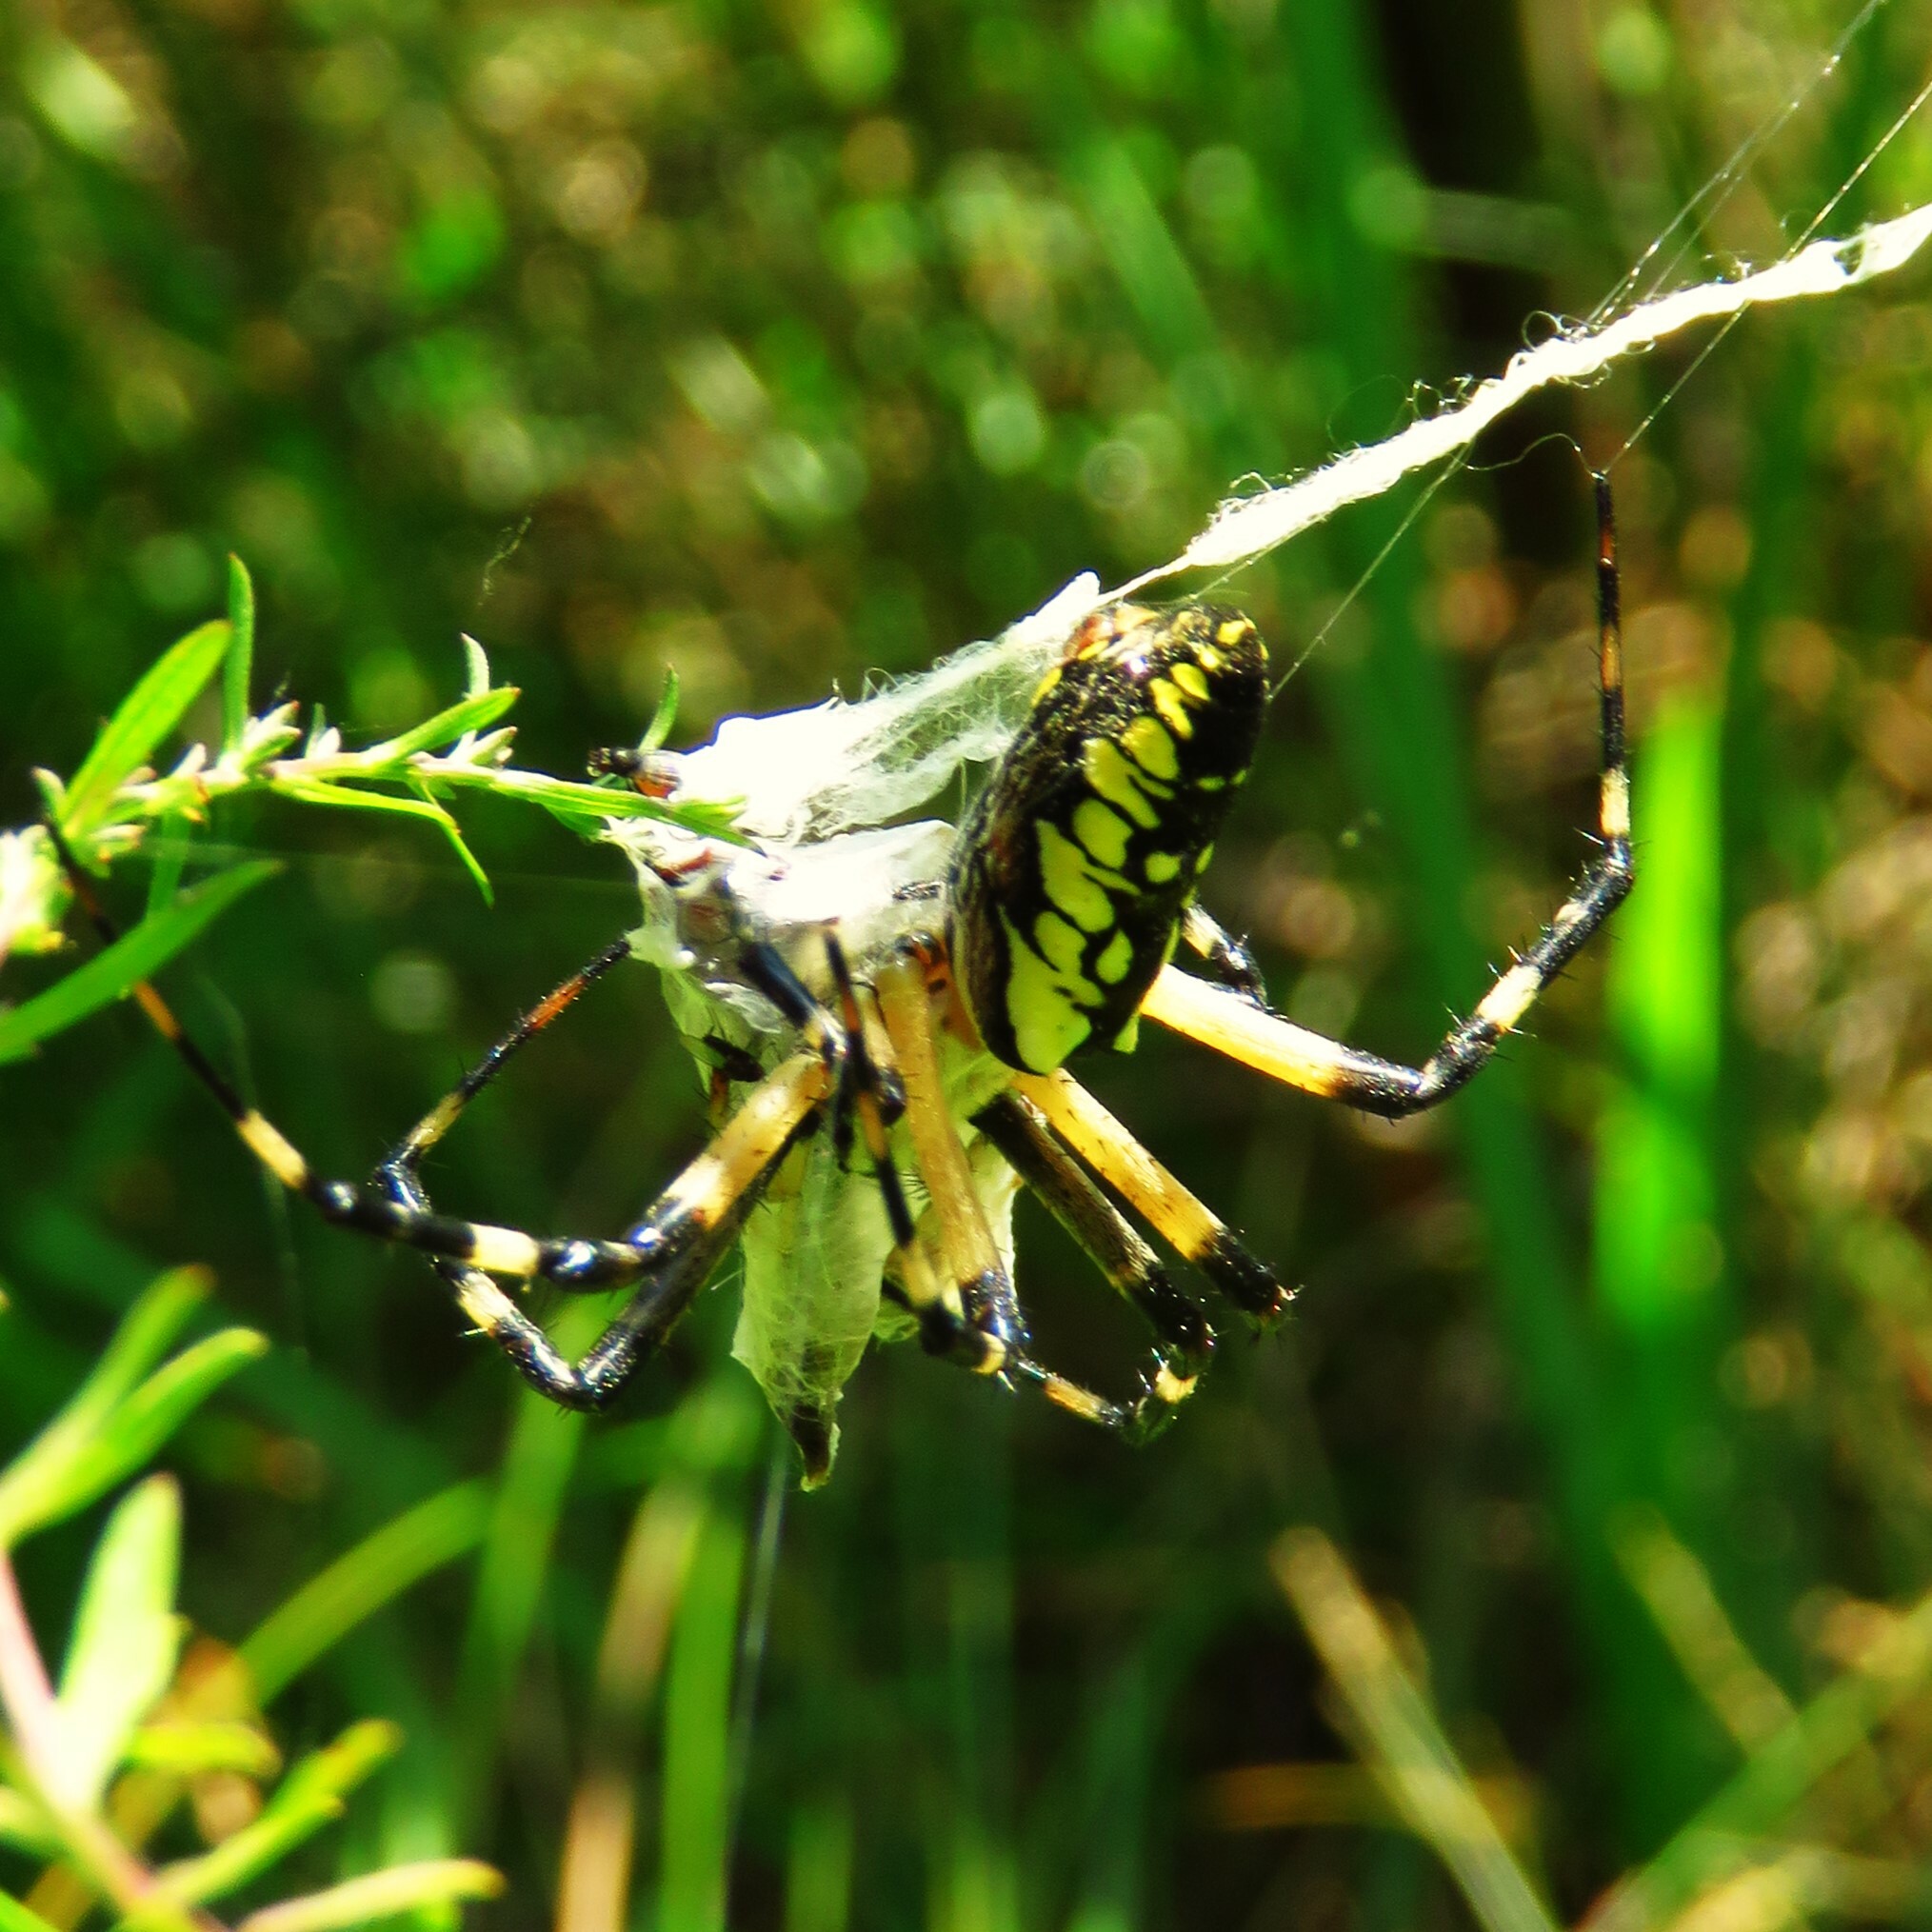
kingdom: Animalia
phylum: Arthropoda
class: Arachnida
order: Araneae
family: Araneidae
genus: Argiope
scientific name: Argiope aurantia
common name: Orb weavers
